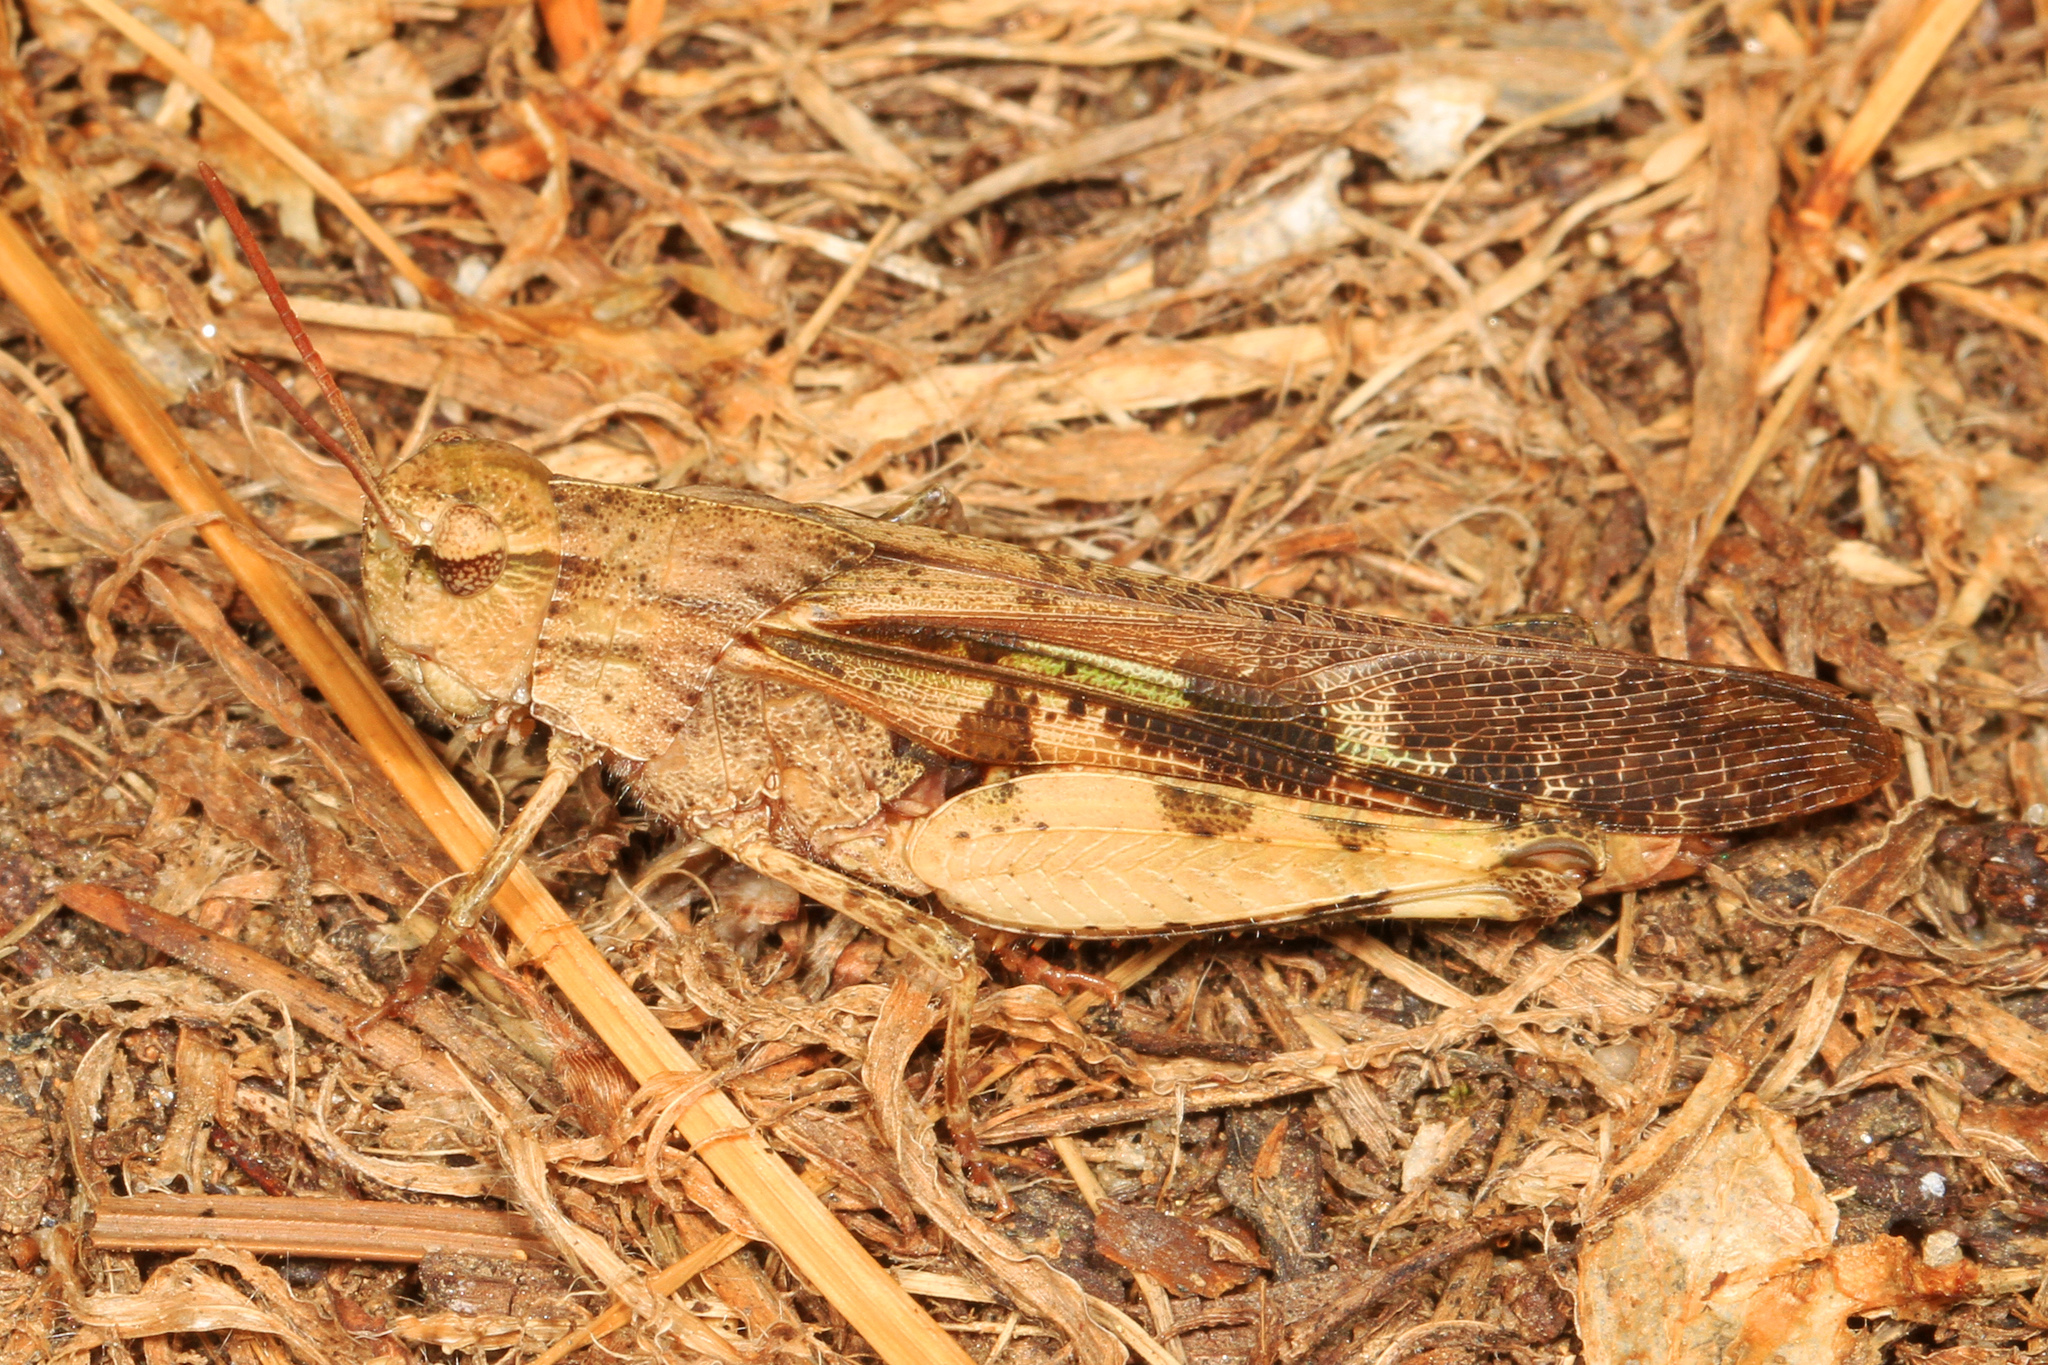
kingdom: Animalia
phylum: Arthropoda
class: Insecta
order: Orthoptera
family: Acrididae
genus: Chortophaga
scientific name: Chortophaga viridifasciata
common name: Green-striped grasshopper
